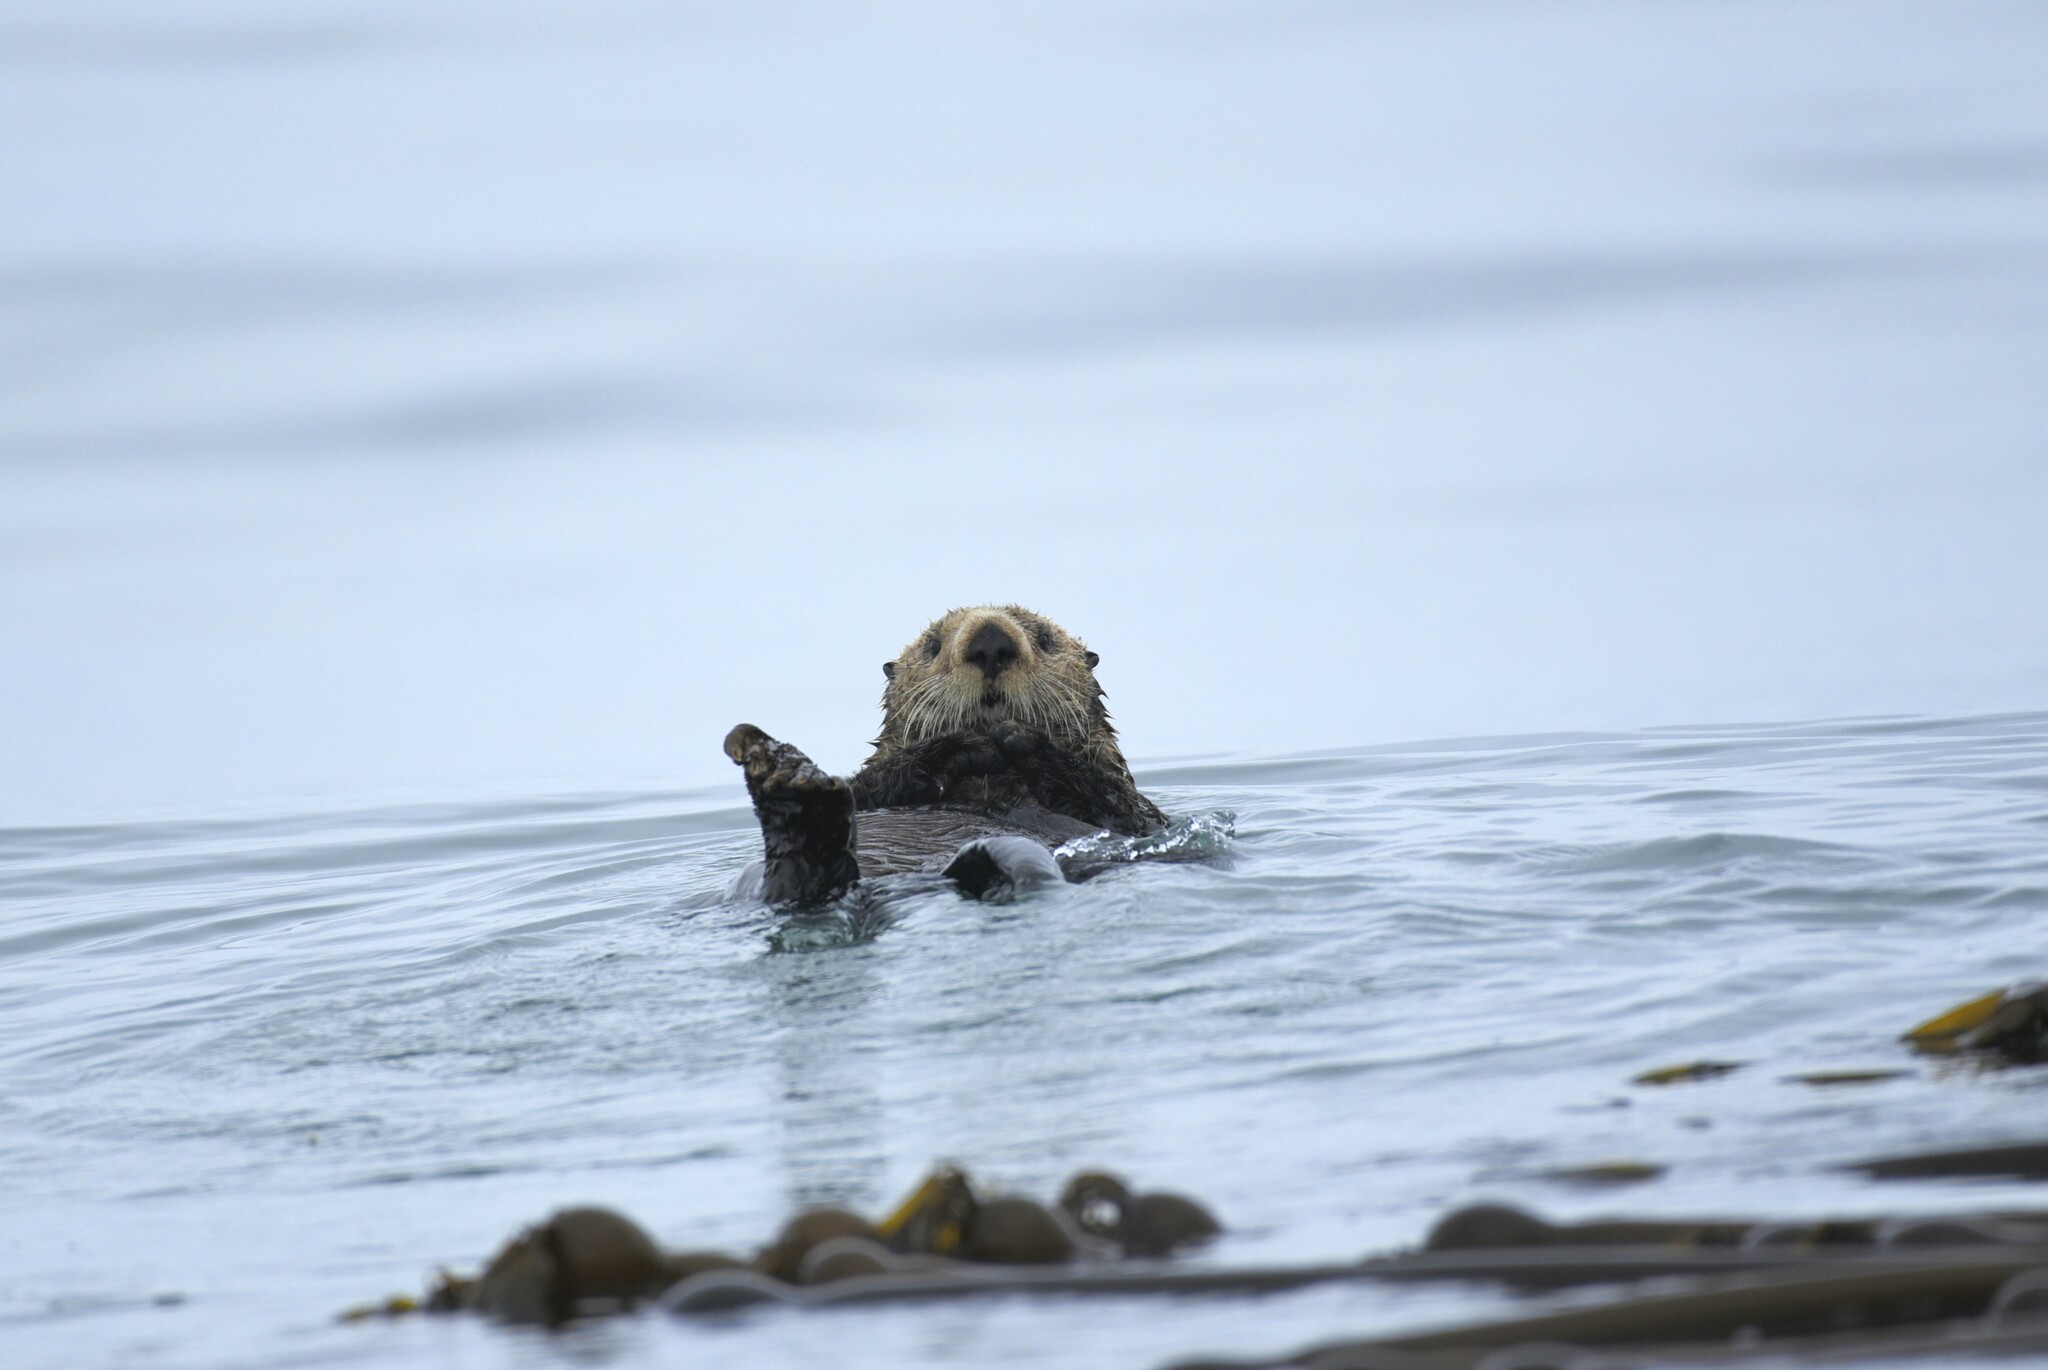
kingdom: Animalia
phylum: Chordata
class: Mammalia
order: Carnivora
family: Mustelidae
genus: Enhydra
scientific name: Enhydra lutris
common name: Sea otter
